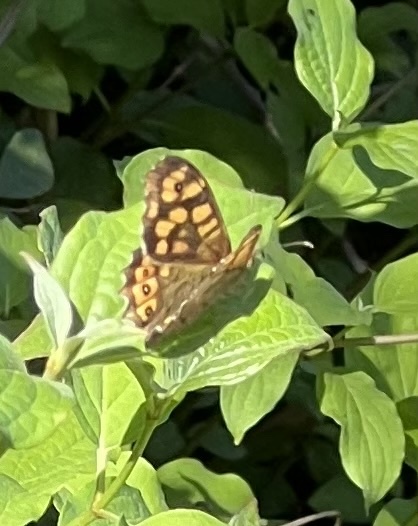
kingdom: Animalia
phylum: Arthropoda
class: Insecta
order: Lepidoptera
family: Nymphalidae
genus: Pararge
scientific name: Pararge aegeria
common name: Speckled wood
